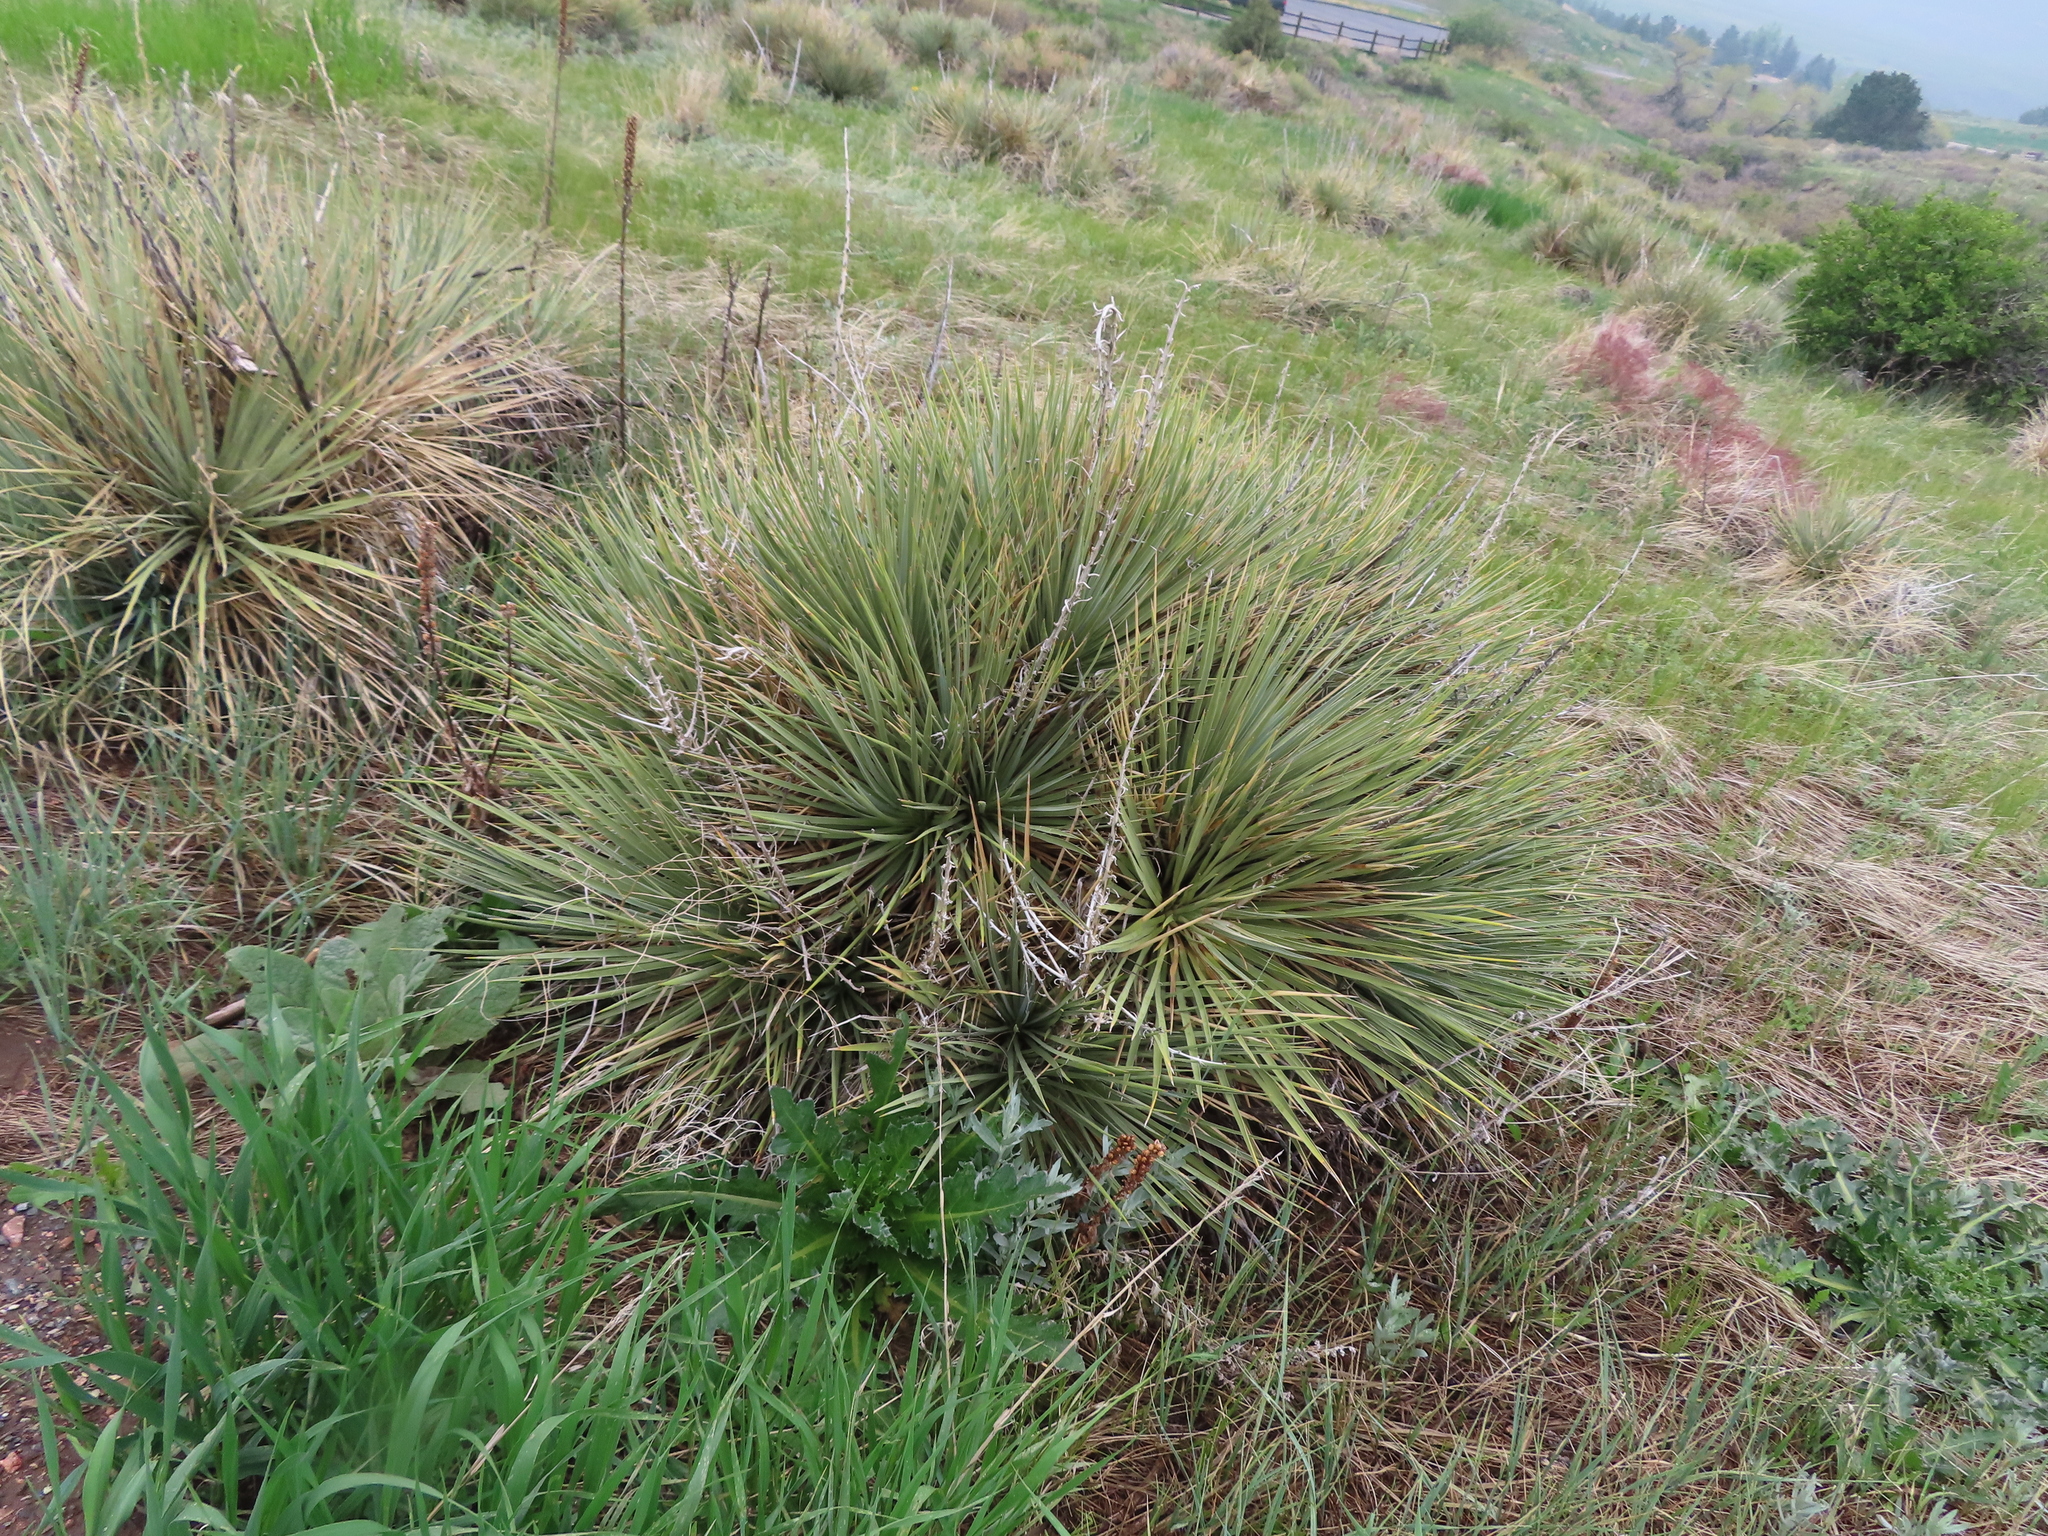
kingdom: Plantae
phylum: Tracheophyta
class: Liliopsida
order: Asparagales
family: Asparagaceae
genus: Yucca
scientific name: Yucca glauca
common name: Great plains yucca
